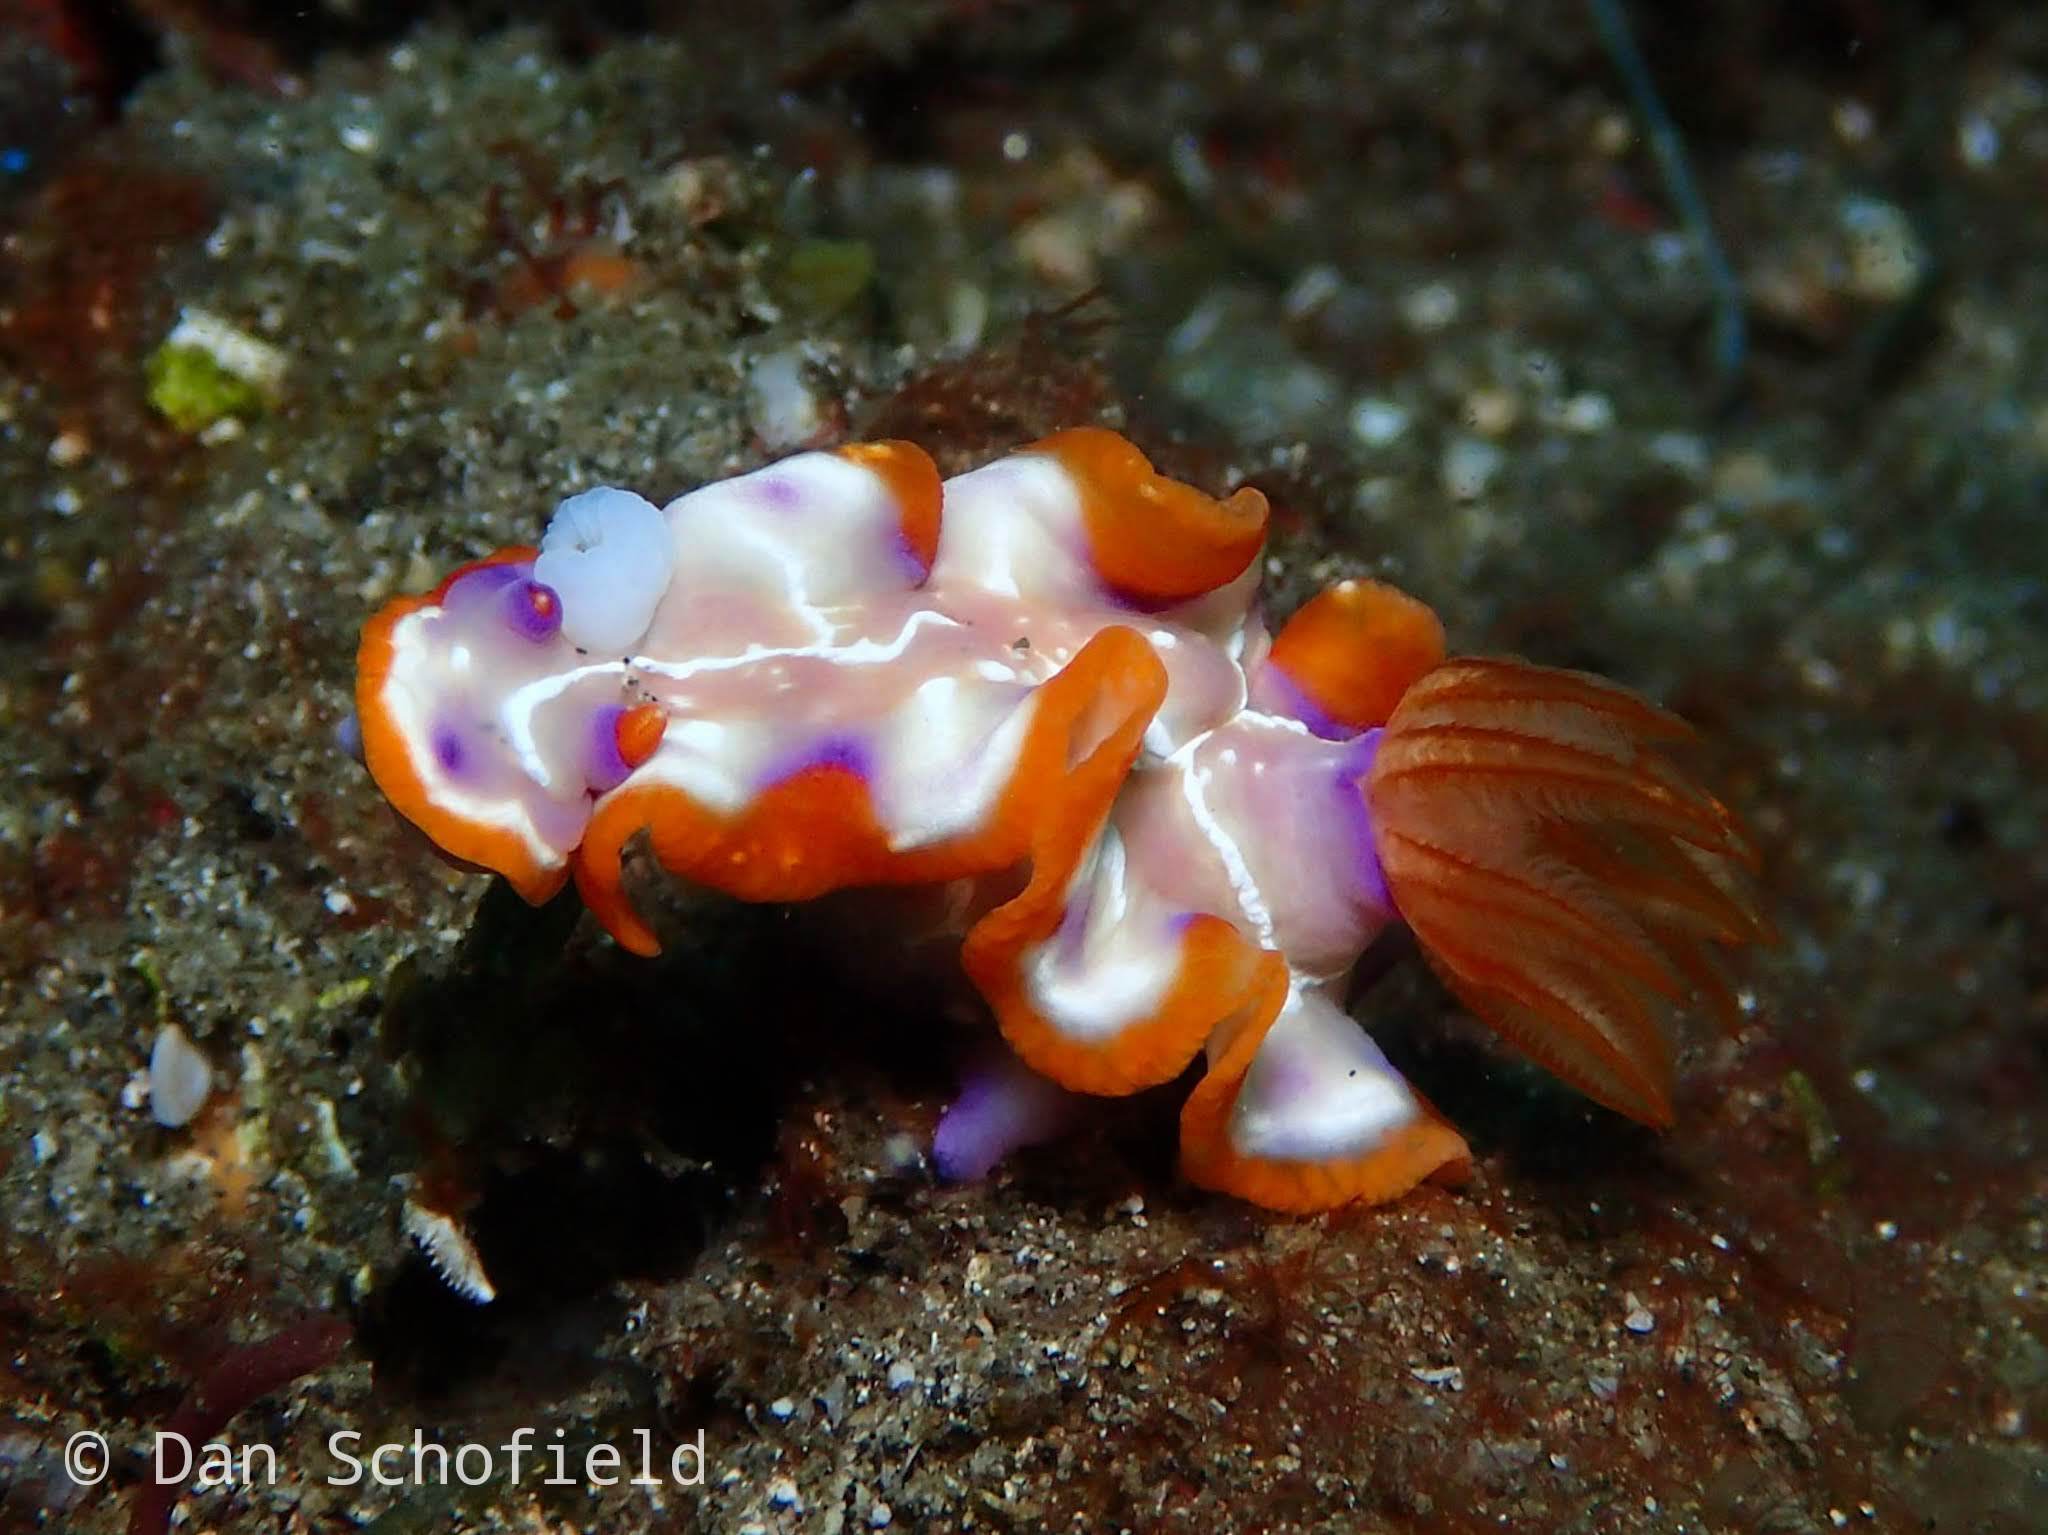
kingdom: Animalia
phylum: Mollusca
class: Gastropoda
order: Nudibranchia
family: Chromodorididae
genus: Hypselodoris
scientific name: Hypselodoris iacula
